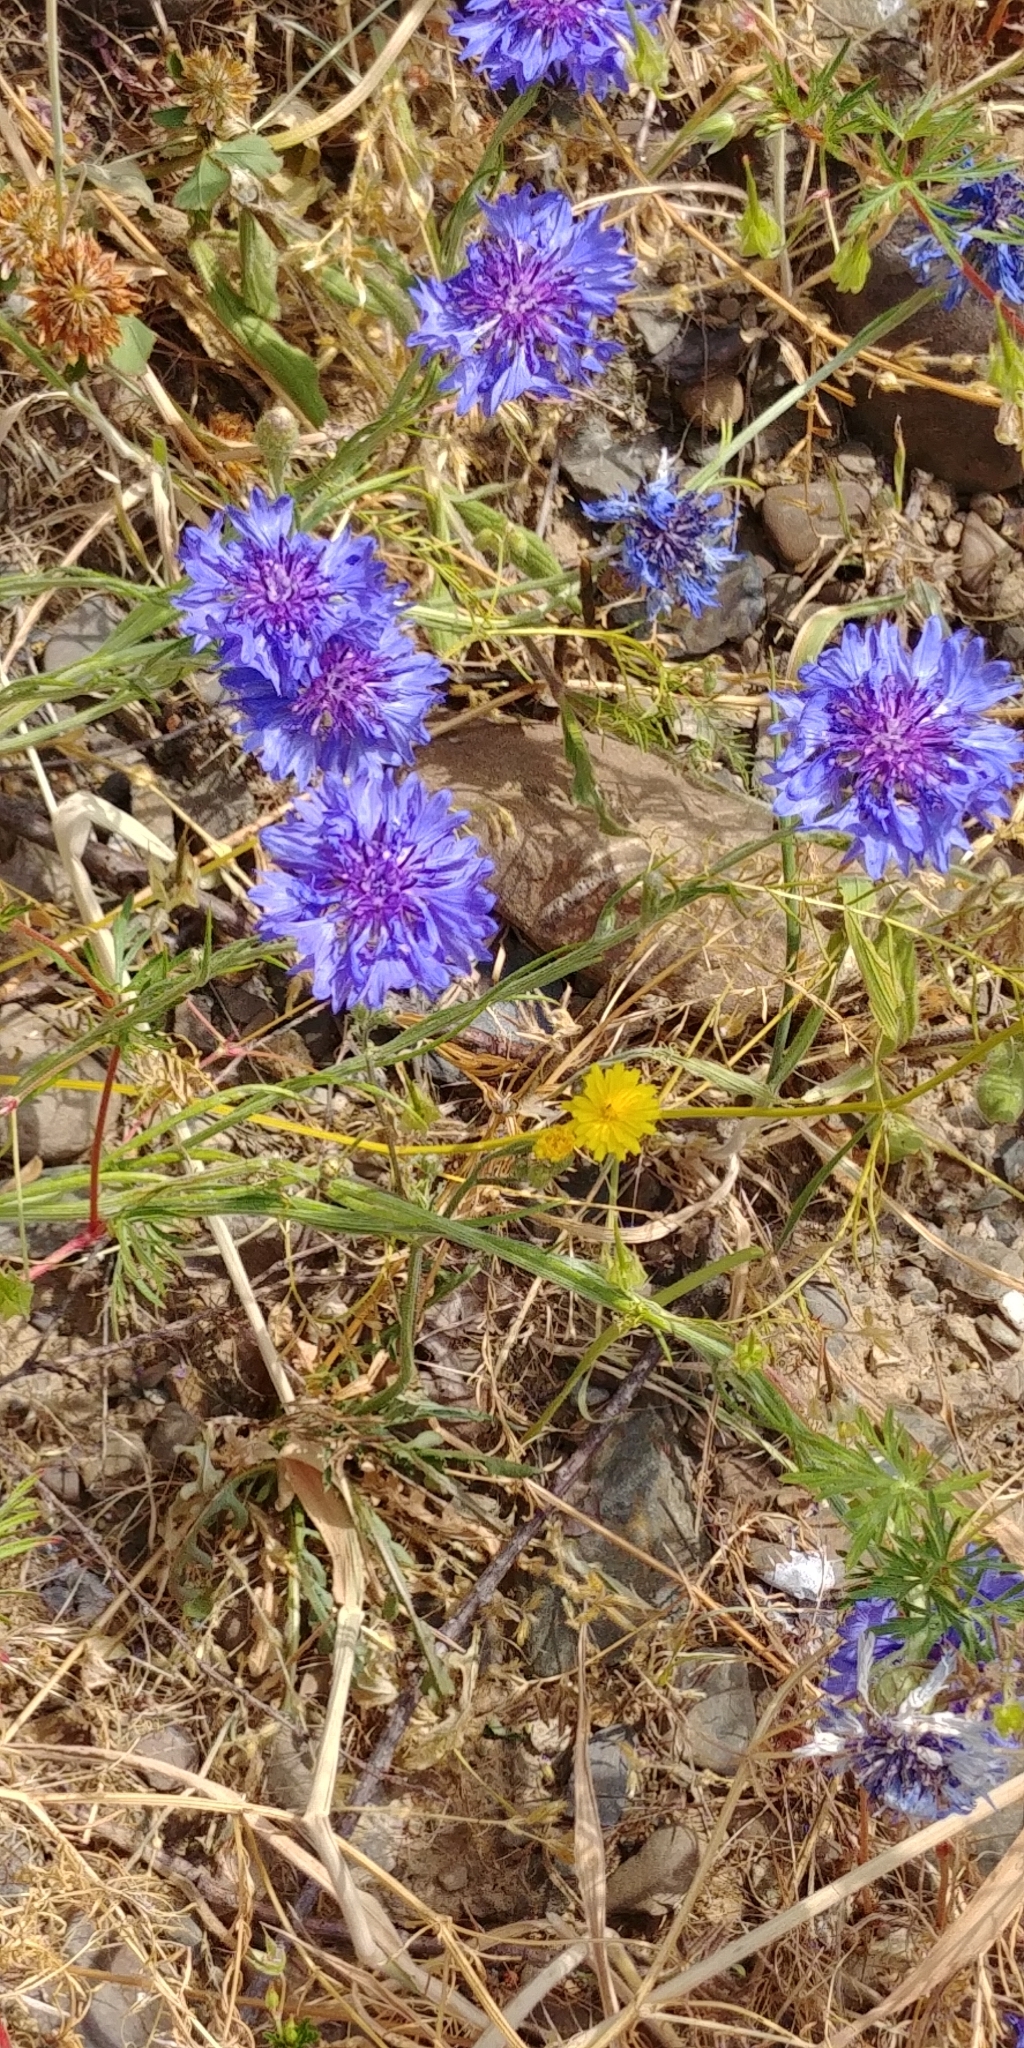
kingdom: Plantae
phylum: Tracheophyta
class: Magnoliopsida
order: Asterales
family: Asteraceae
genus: Centaurea
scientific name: Centaurea cyanus
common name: Cornflower
